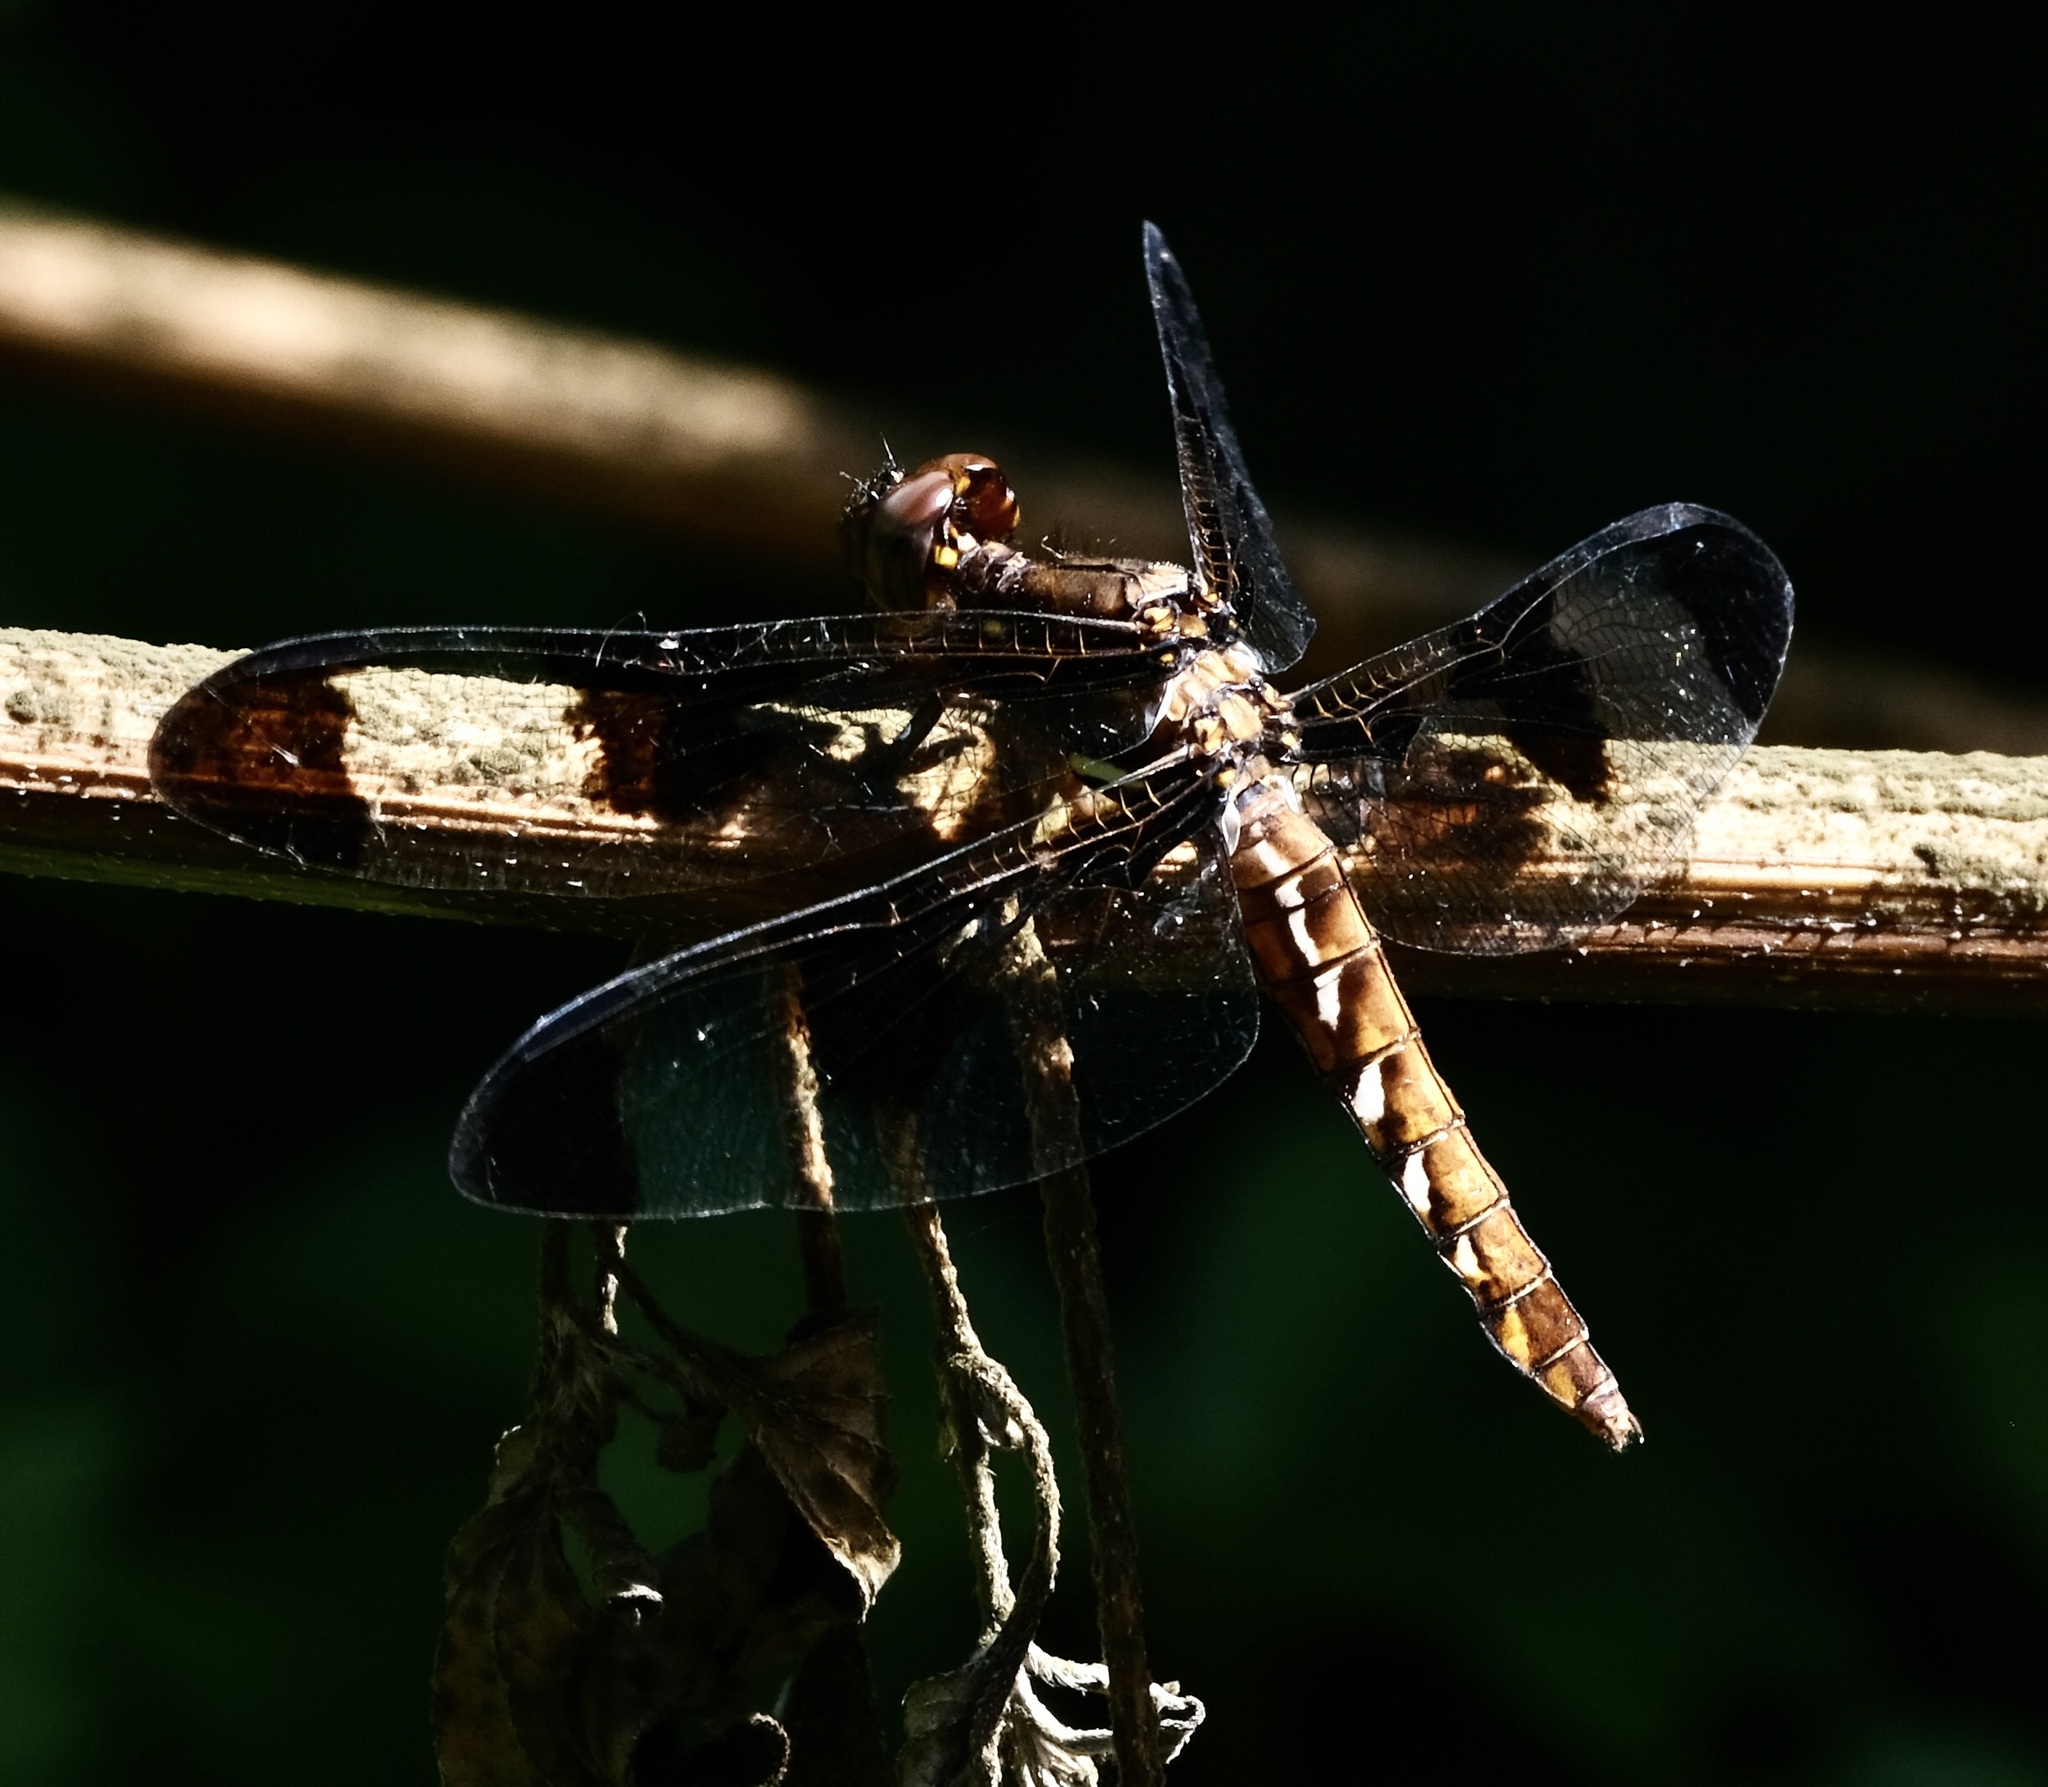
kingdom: Animalia
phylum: Arthropoda
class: Insecta
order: Odonata
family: Libellulidae
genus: Plathemis
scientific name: Plathemis lydia
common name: Common whitetail
